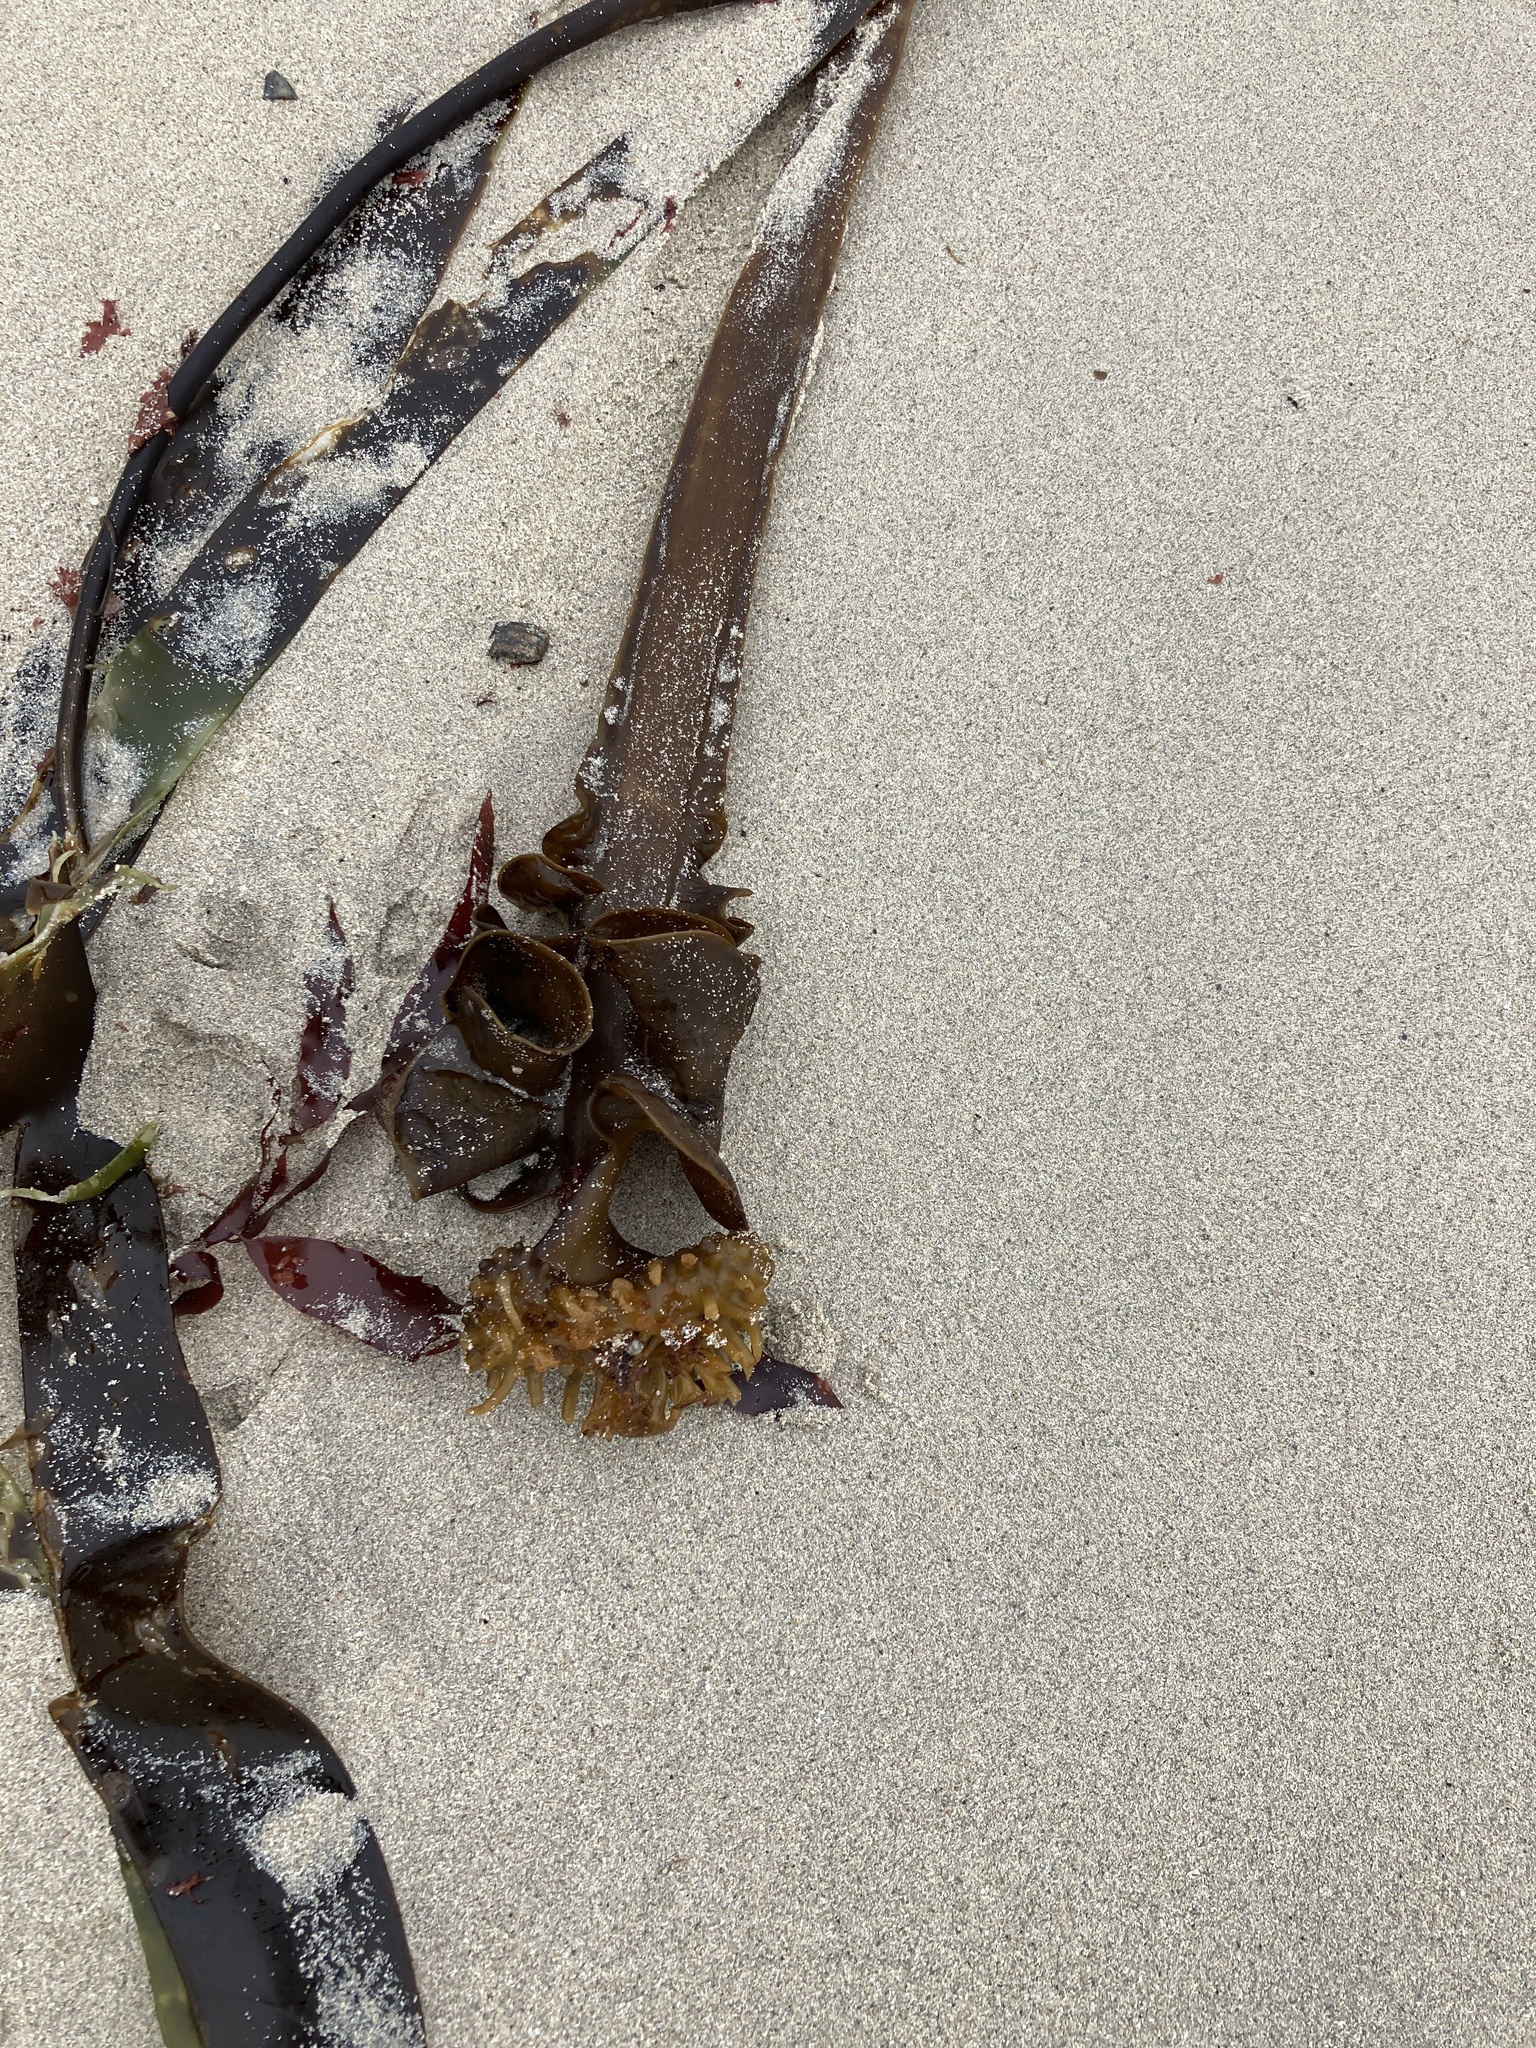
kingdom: Chromista
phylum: Ochrophyta
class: Phaeophyceae
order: Tilopteridales
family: Phyllariaceae
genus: Saccorhiza
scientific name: Saccorhiza polyschides
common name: Furbelows
